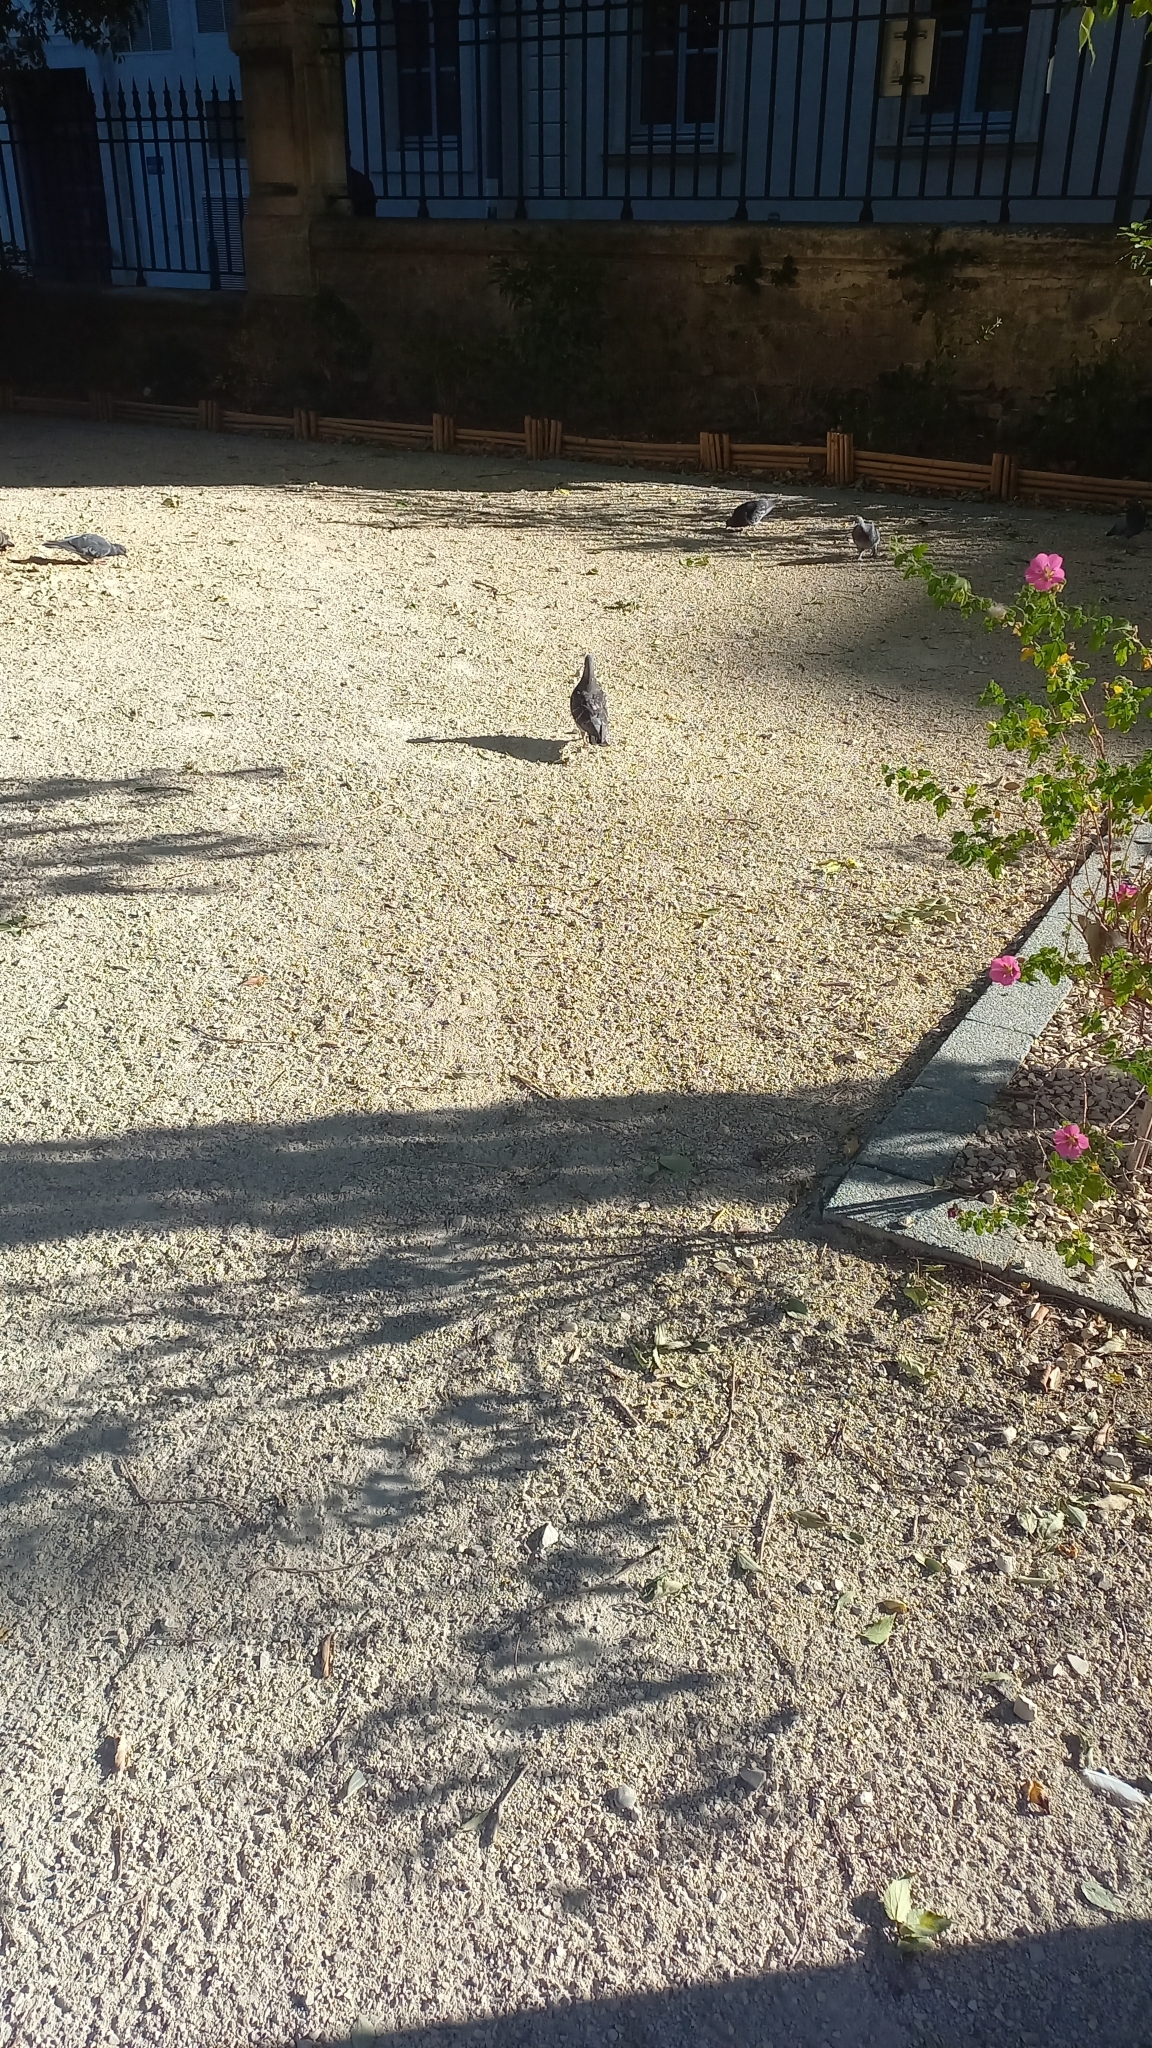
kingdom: Animalia
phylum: Chordata
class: Aves
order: Columbiformes
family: Columbidae
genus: Columba
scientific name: Columba livia
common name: Rock pigeon
